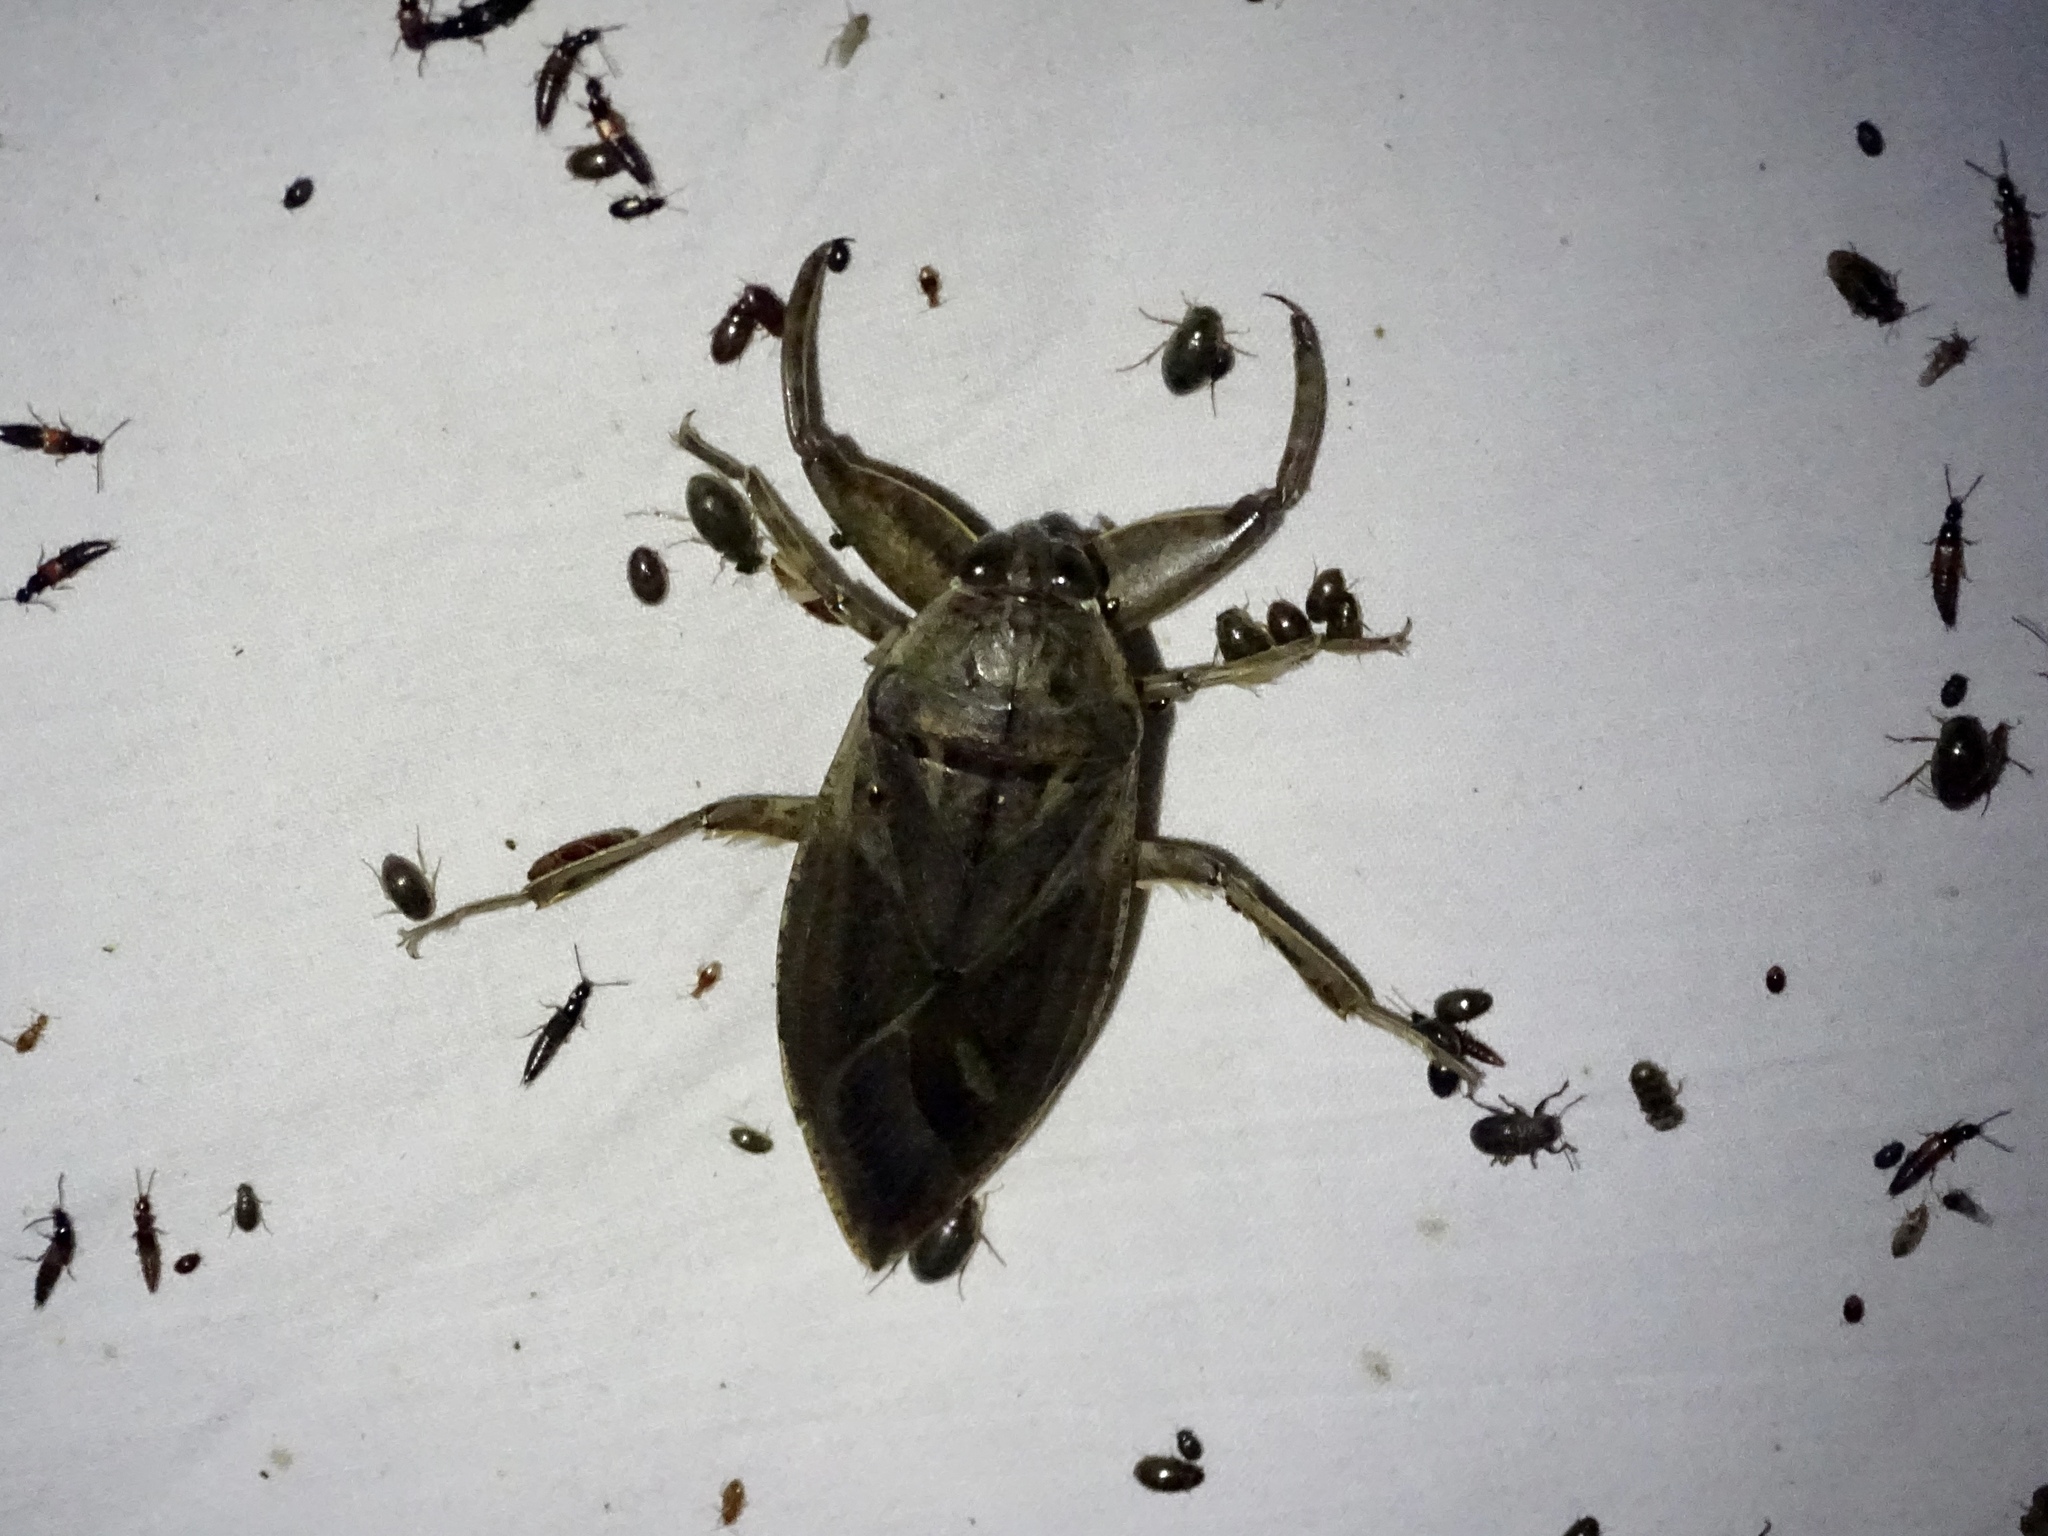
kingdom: Animalia
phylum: Arthropoda
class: Insecta
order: Hemiptera
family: Belostomatidae
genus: Lethocerus
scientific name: Lethocerus uhleri
